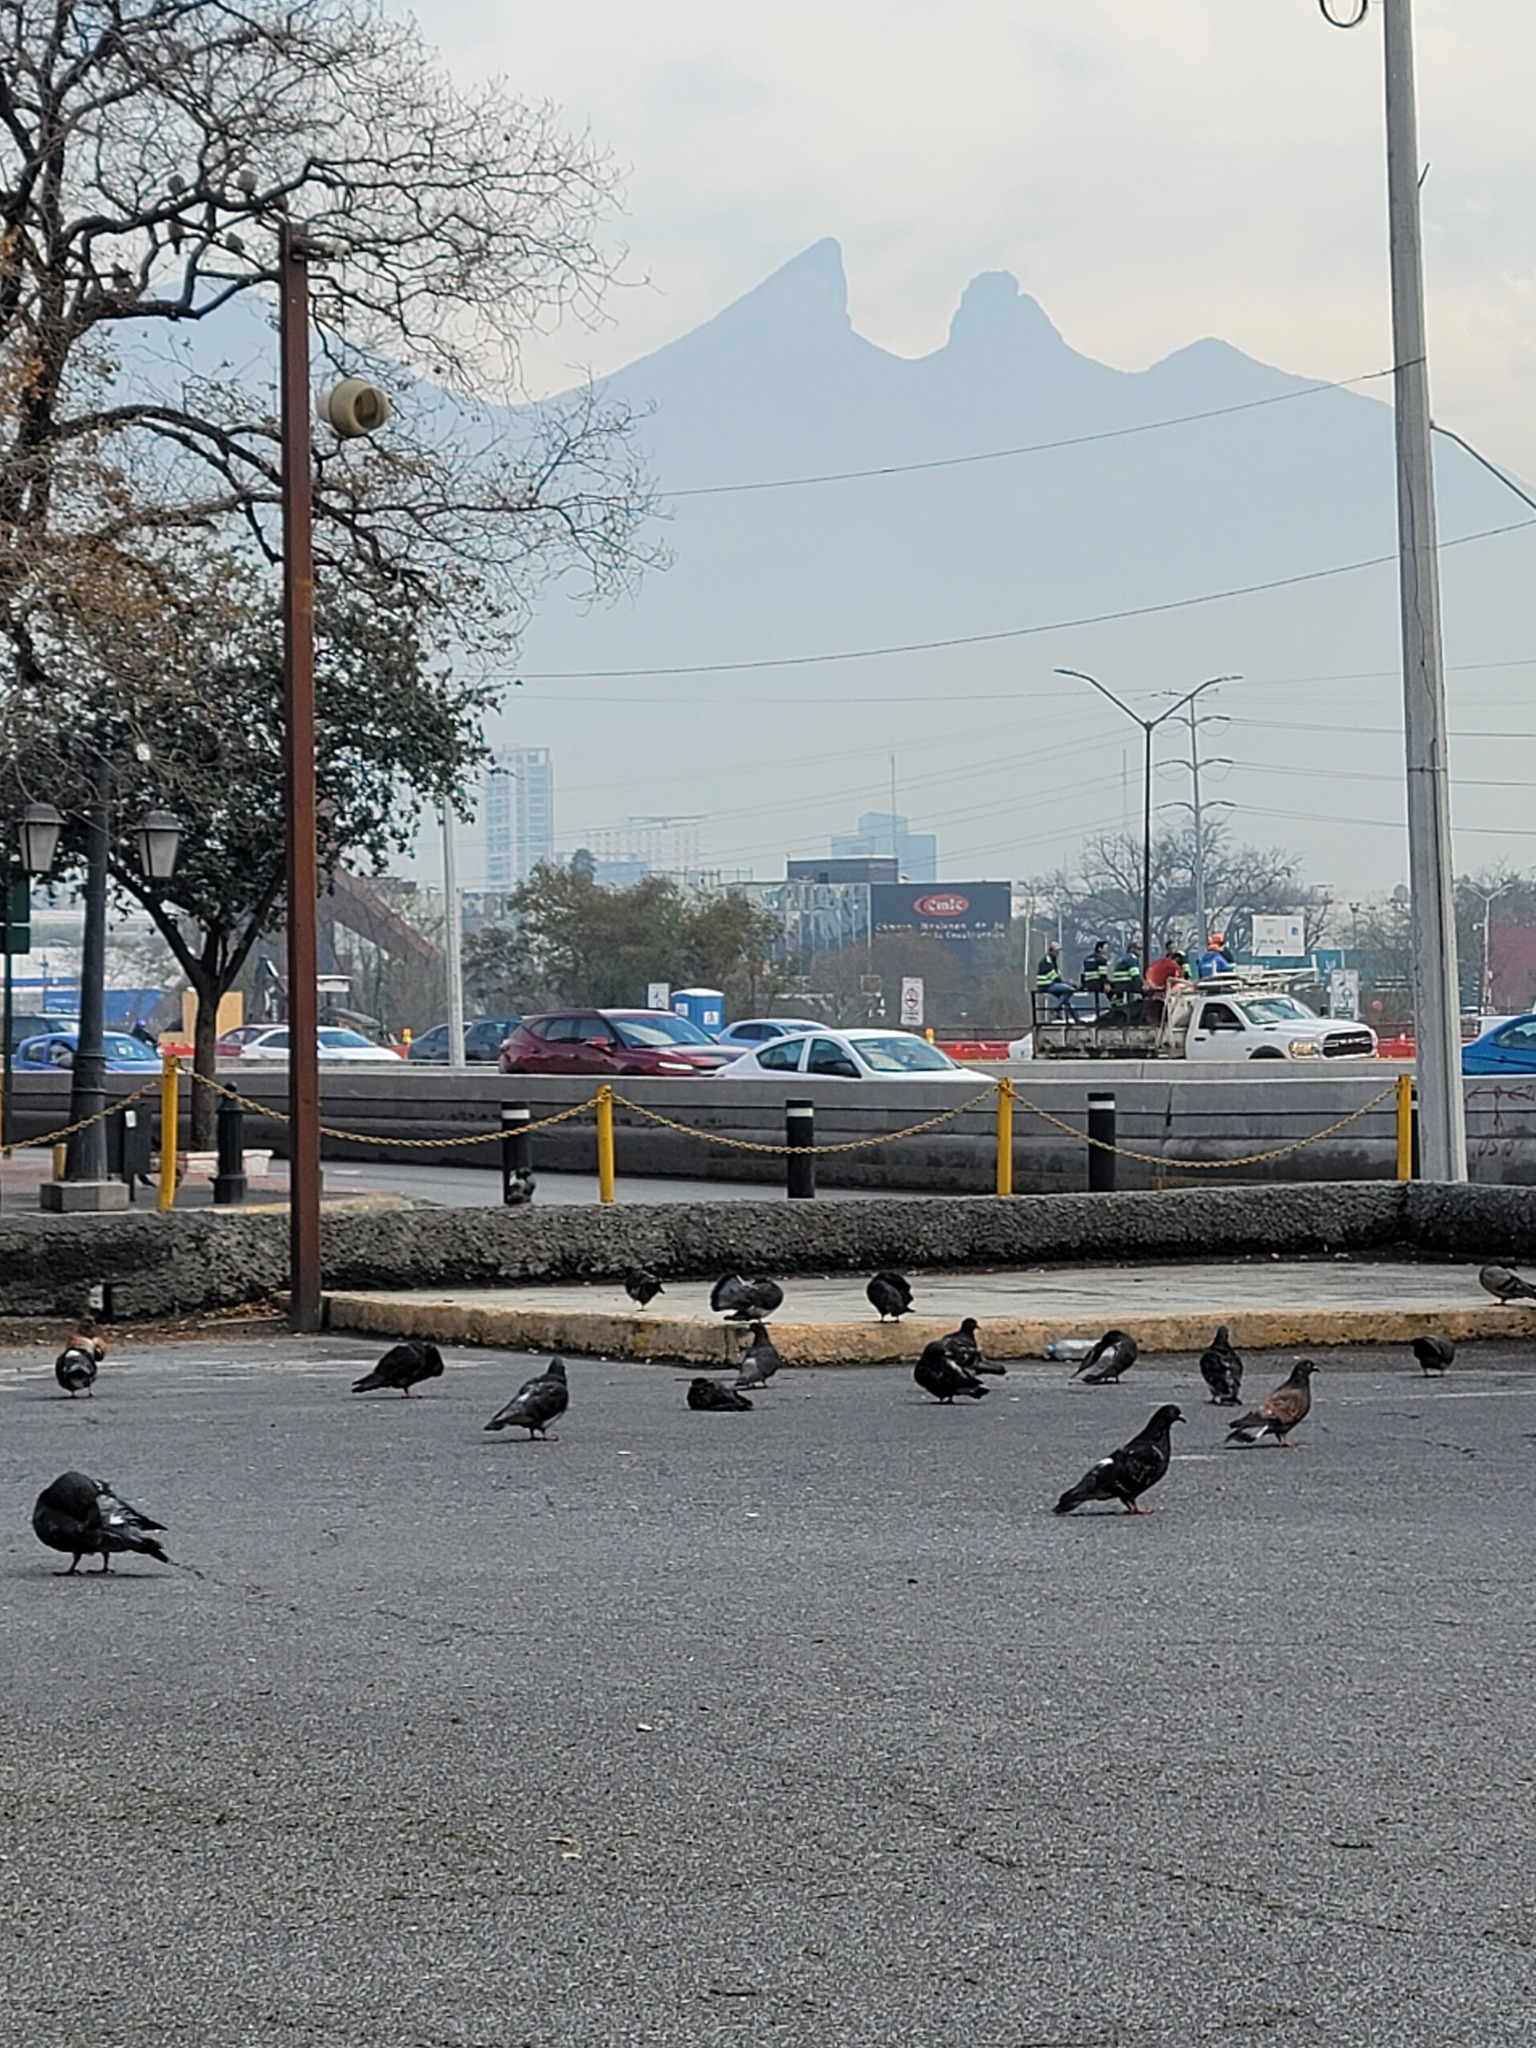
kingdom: Animalia
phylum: Chordata
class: Aves
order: Columbiformes
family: Columbidae
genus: Columba
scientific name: Columba livia
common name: Rock pigeon
